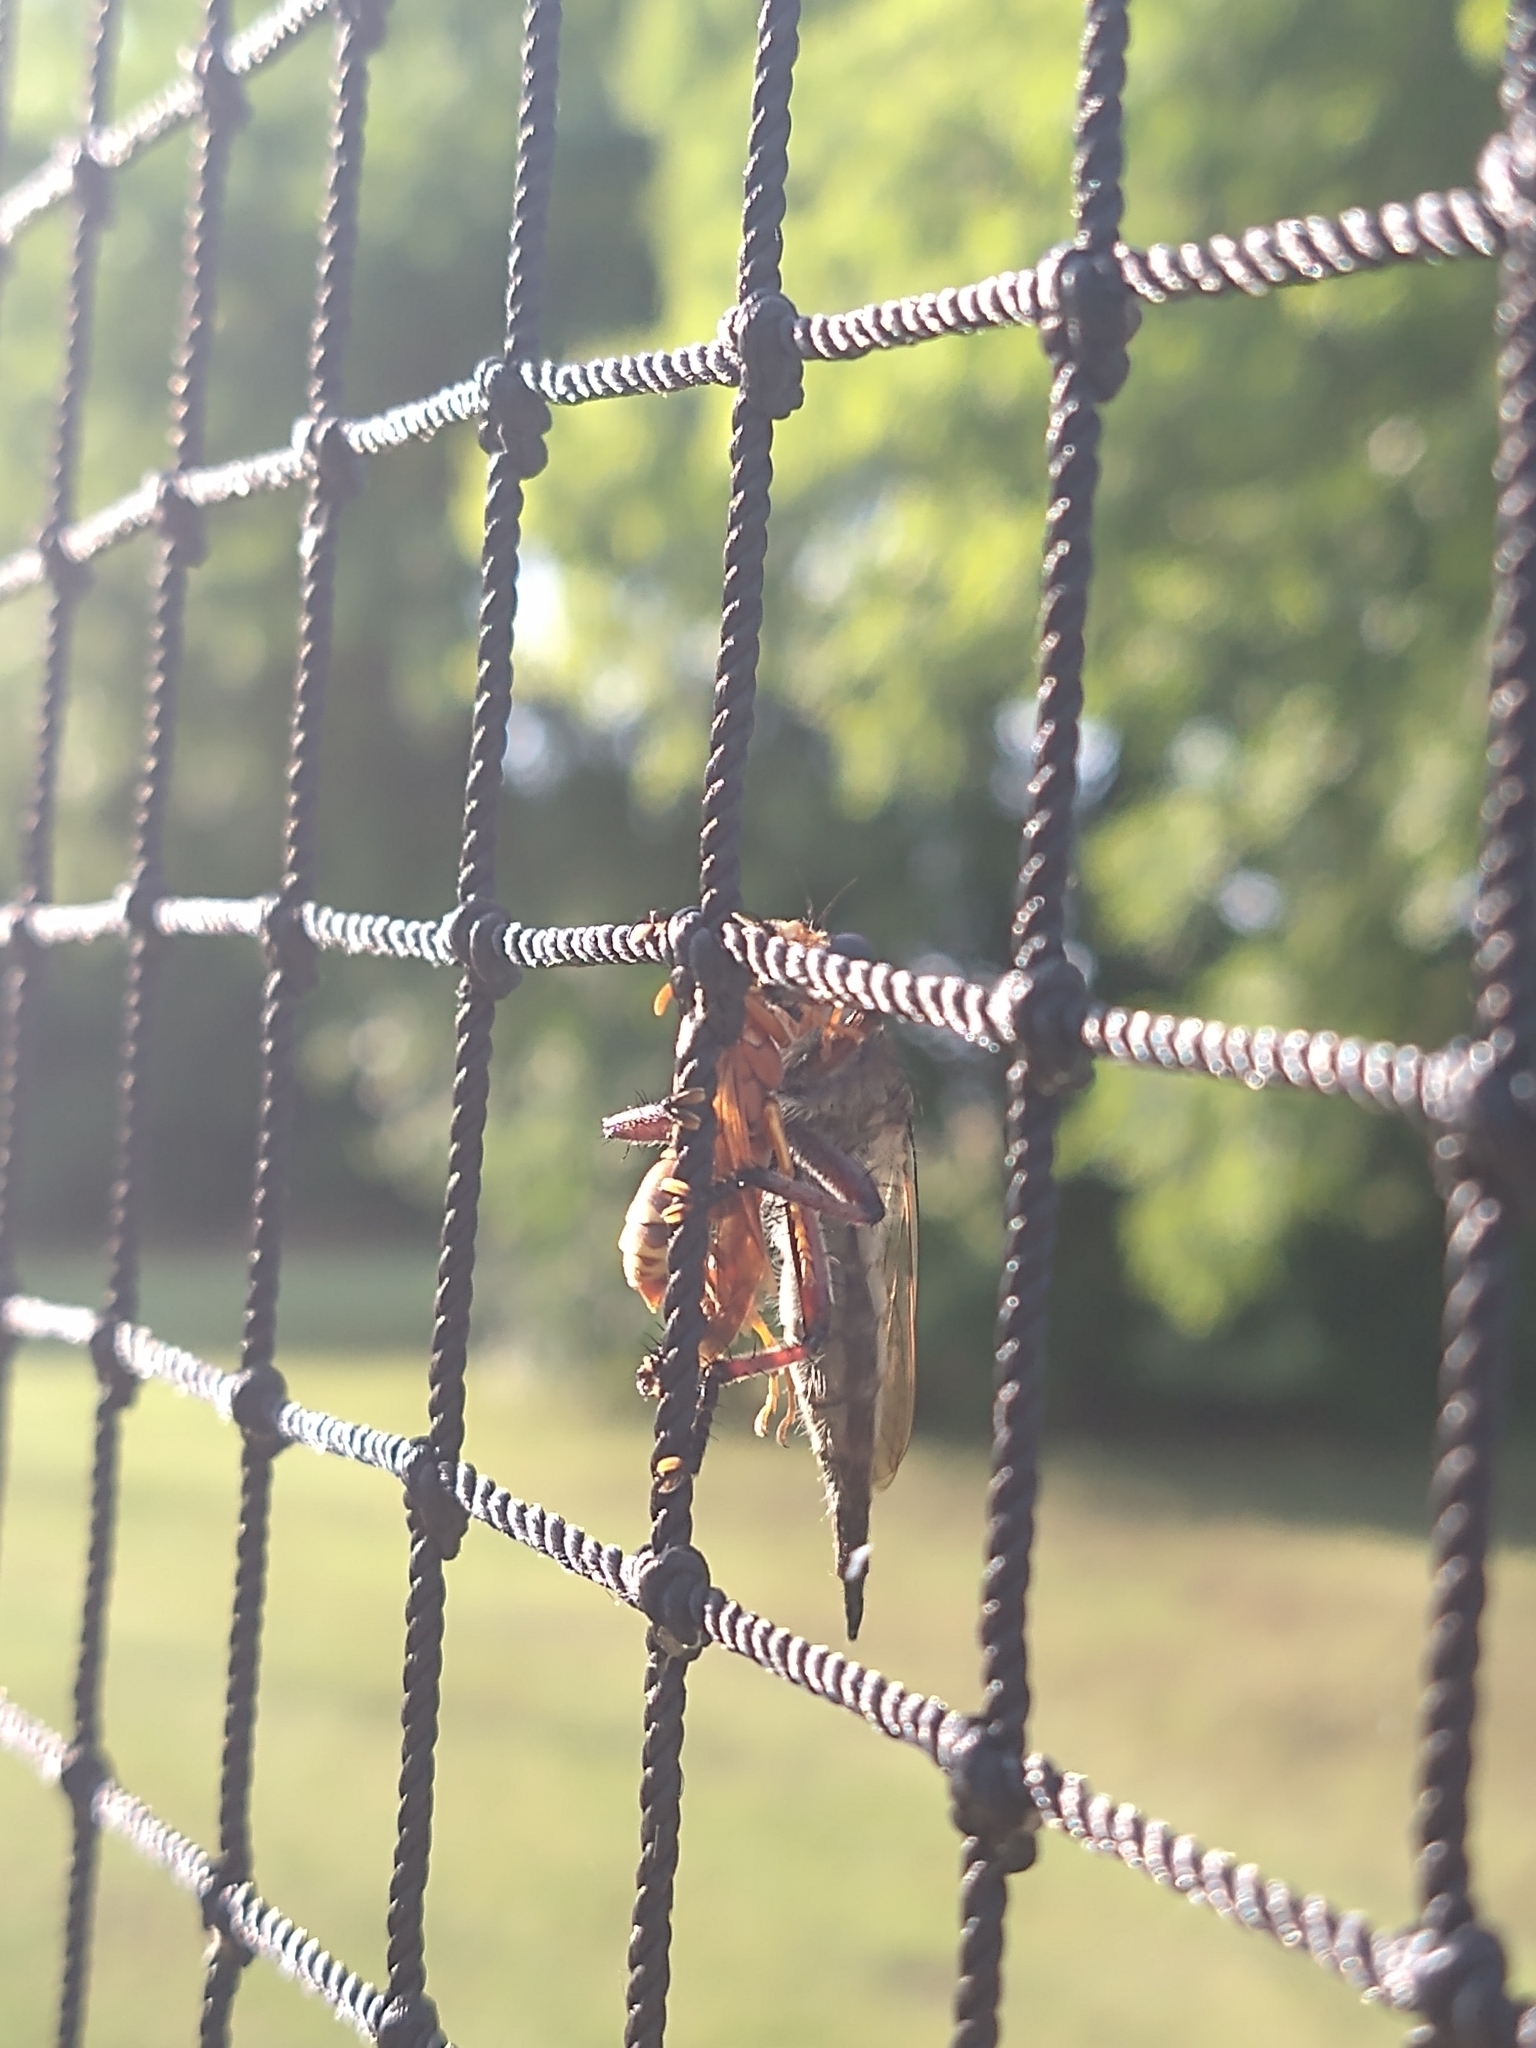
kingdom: Animalia
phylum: Arthropoda
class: Insecta
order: Diptera
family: Asilidae
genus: Promachus
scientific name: Promachus hinei
